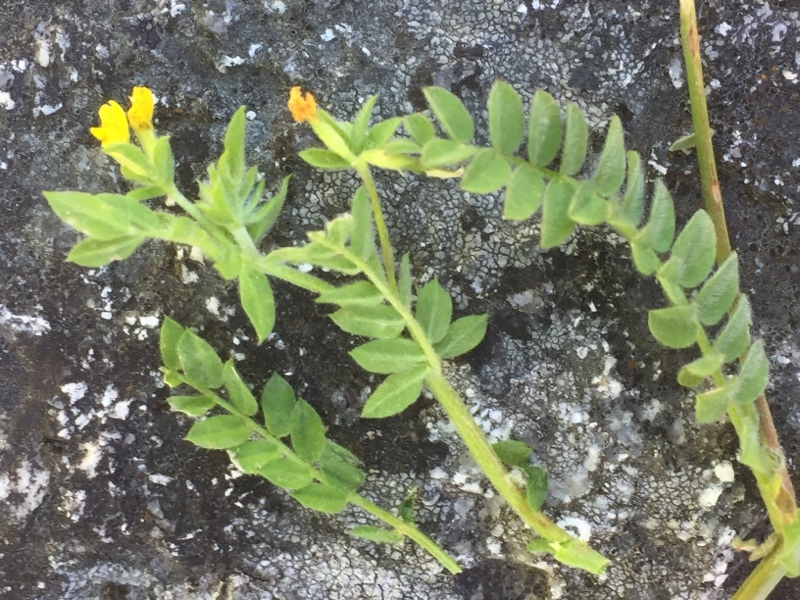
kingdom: Plantae
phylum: Tracheophyta
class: Magnoliopsida
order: Fabales
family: Fabaceae
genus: Ornithopus
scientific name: Ornithopus compressus
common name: Yellow serradella
